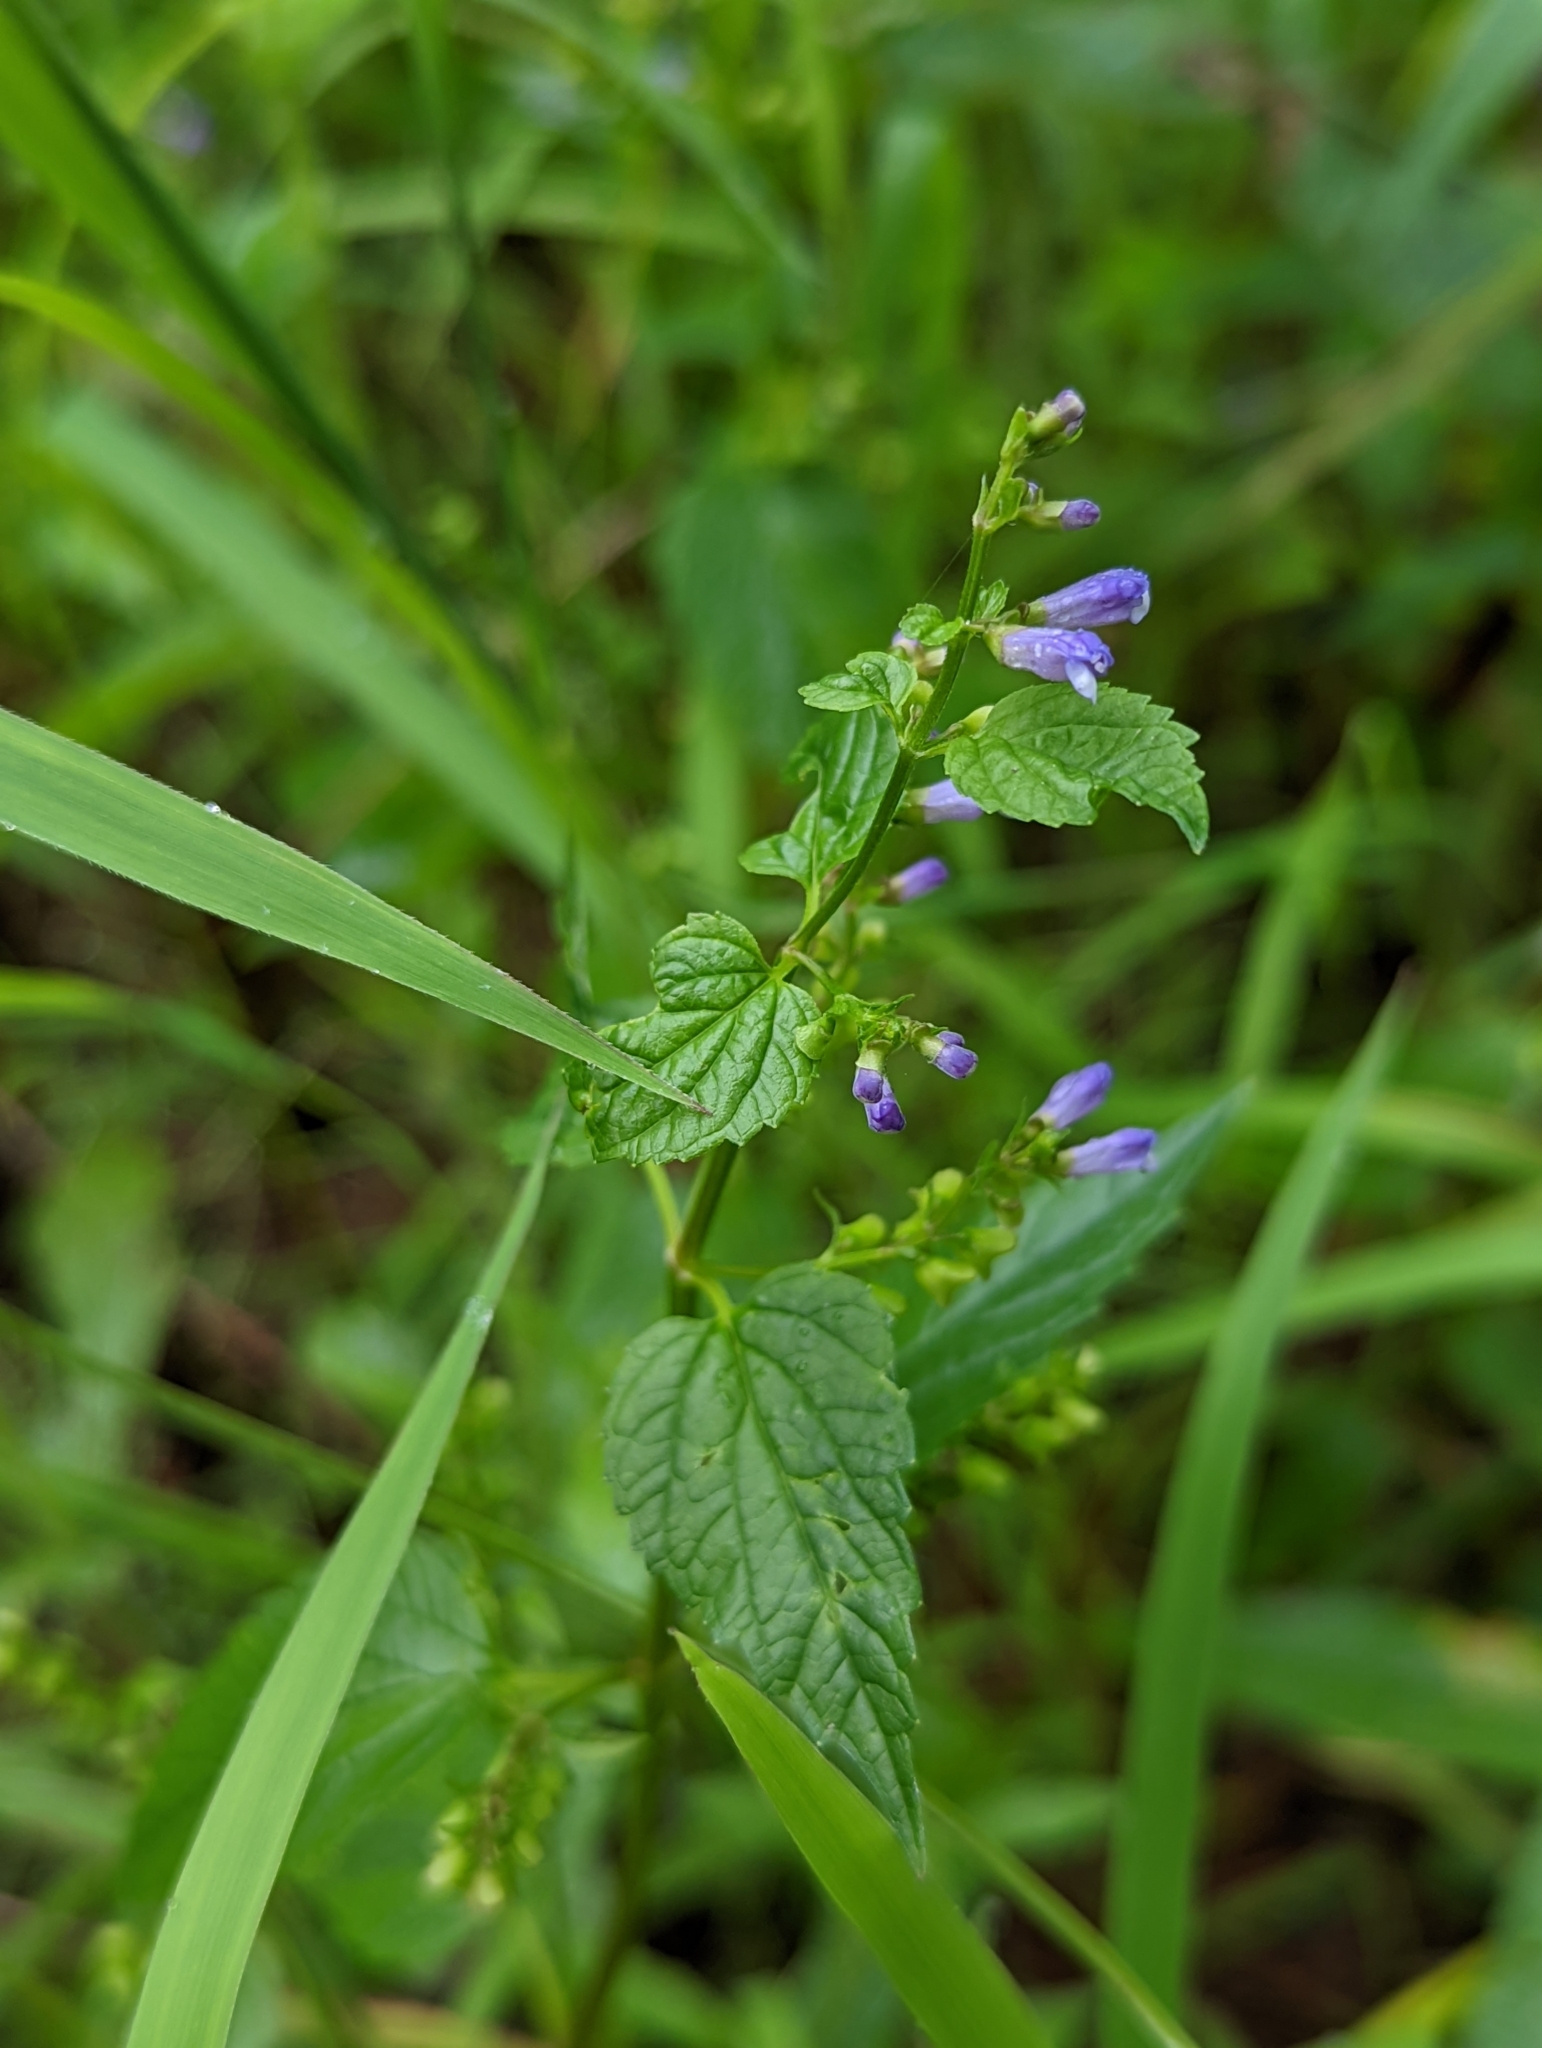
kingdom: Plantae
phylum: Tracheophyta
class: Magnoliopsida
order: Lamiales
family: Lamiaceae
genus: Scutellaria
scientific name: Scutellaria lateriflora
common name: Blue skullcap
